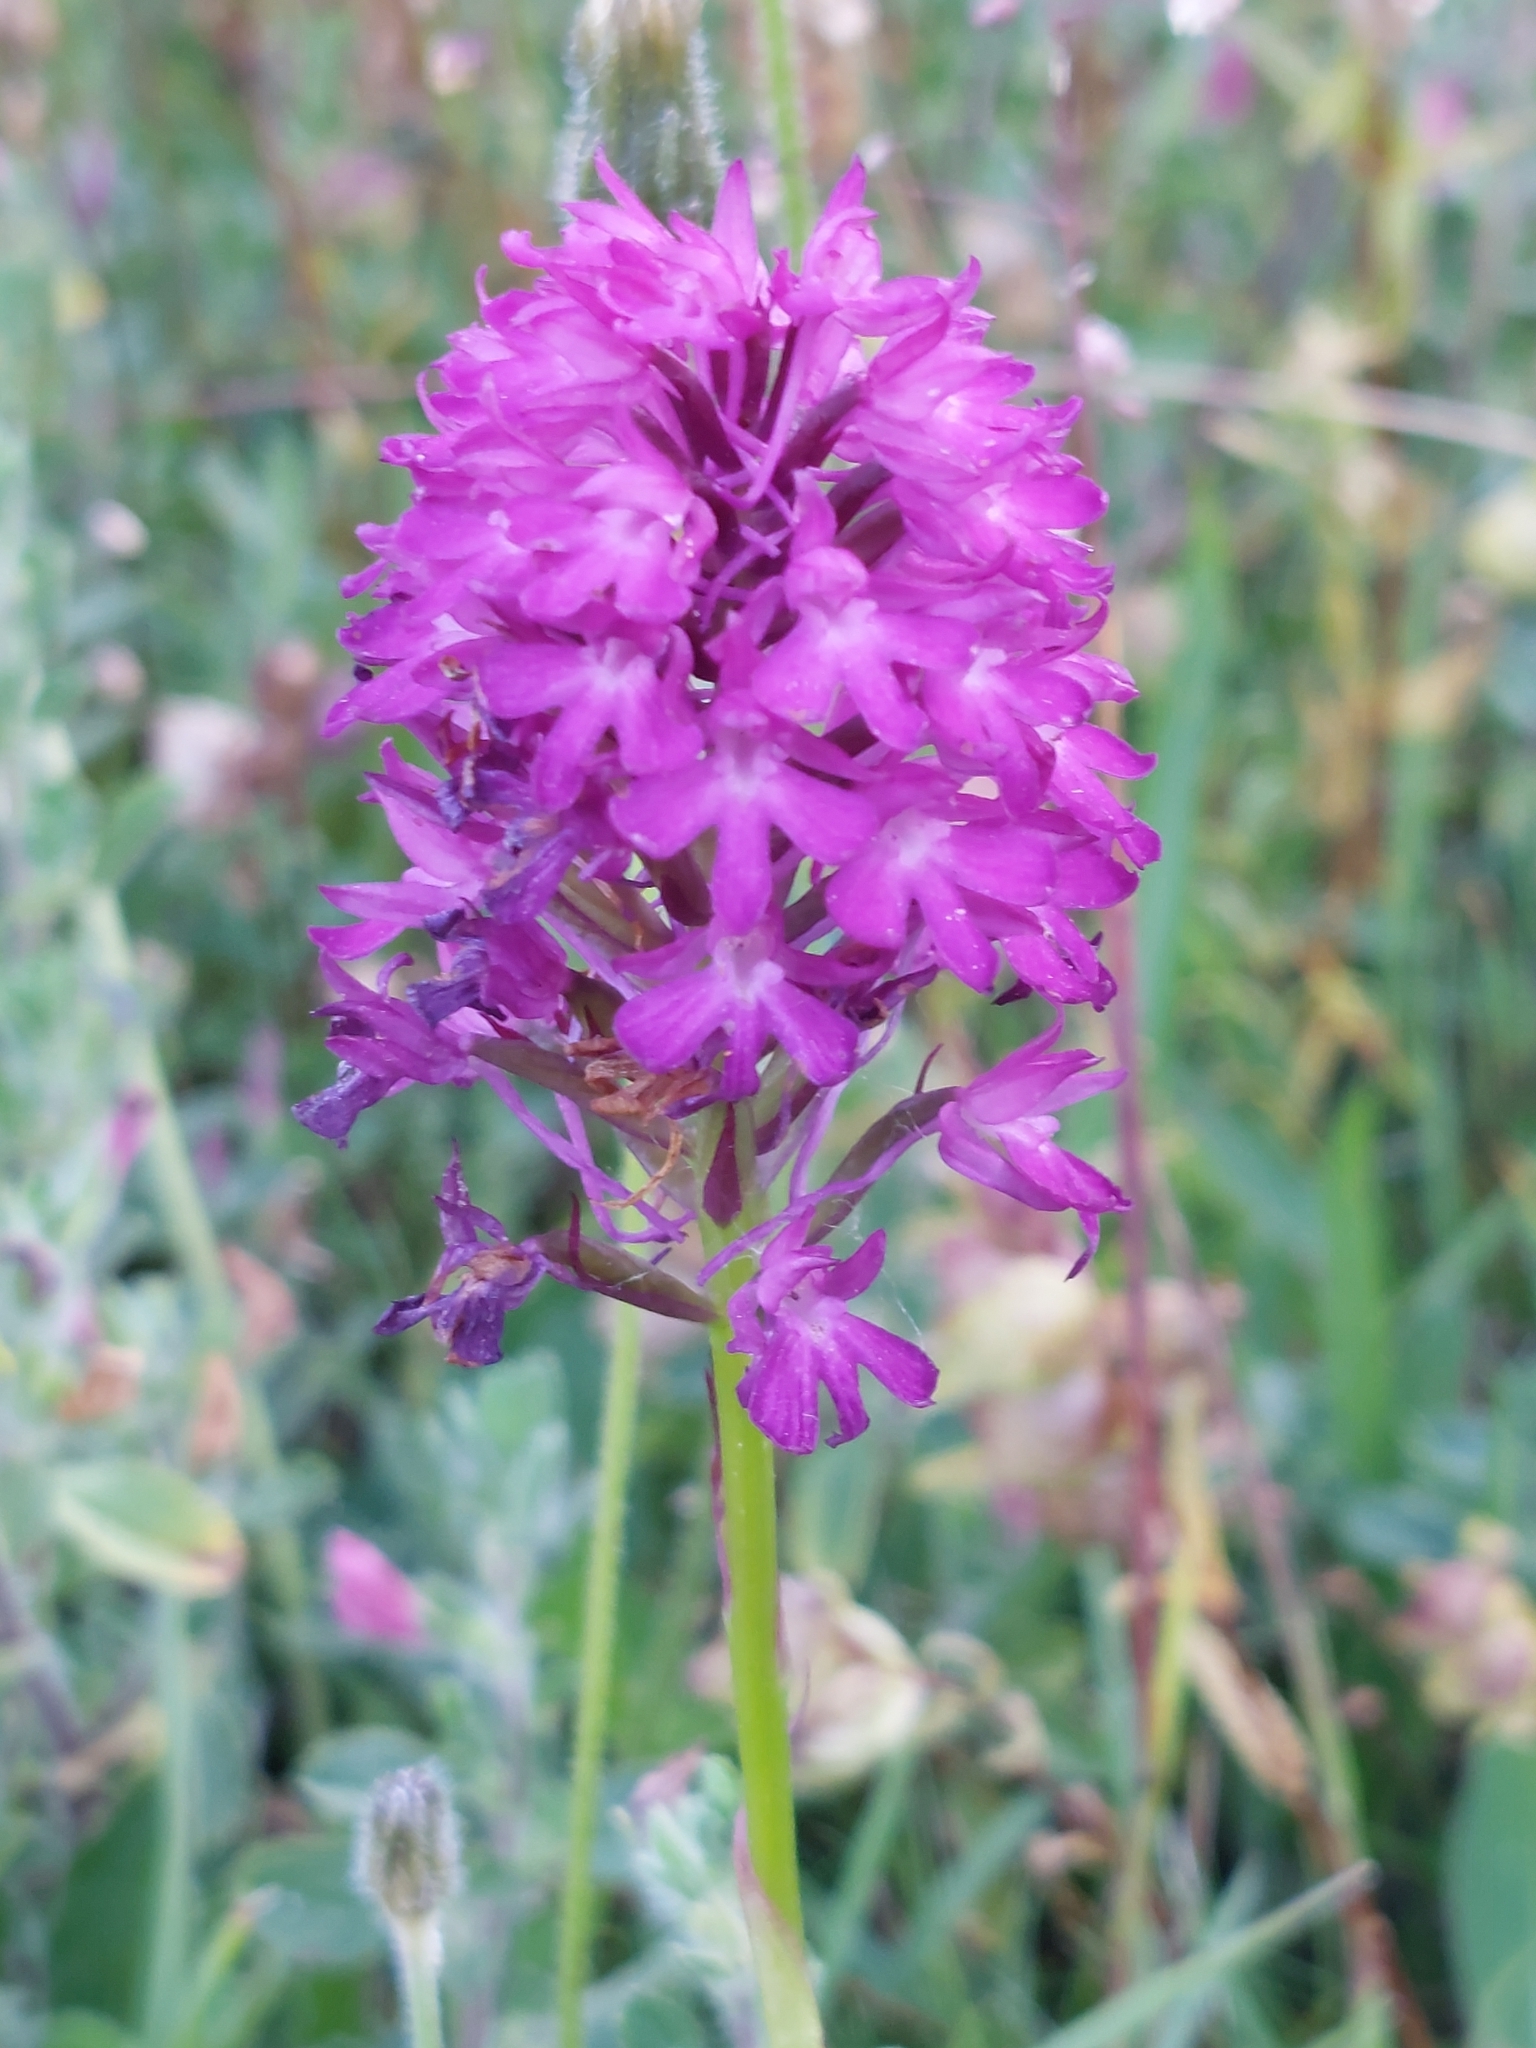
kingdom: Plantae
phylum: Tracheophyta
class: Liliopsida
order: Asparagales
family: Orchidaceae
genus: Anacamptis
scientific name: Anacamptis pyramidalis
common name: Pyramidal orchid
